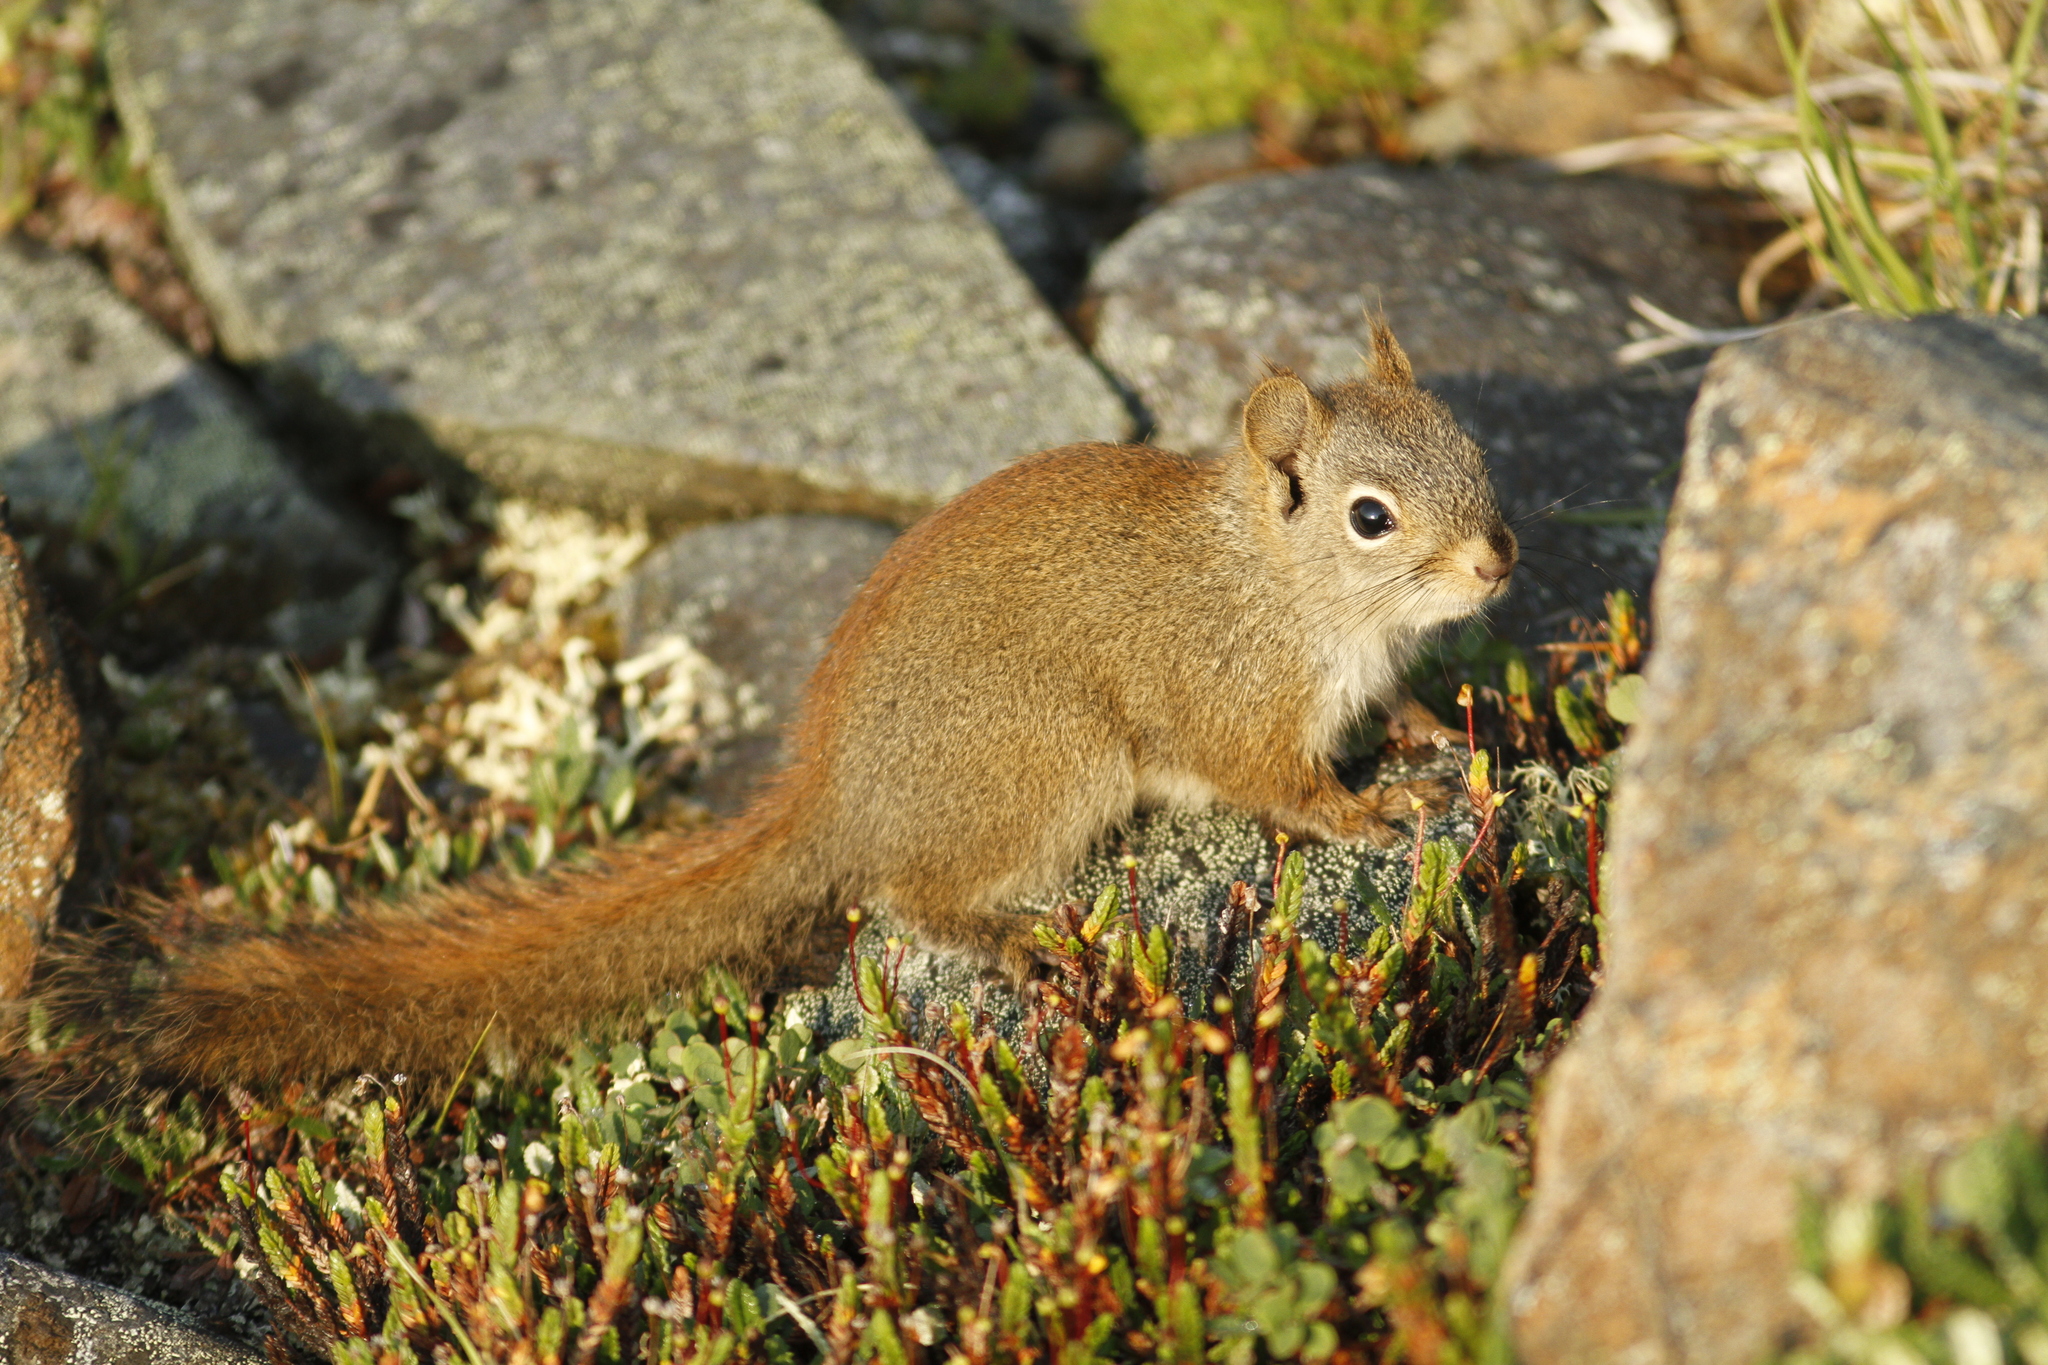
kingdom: Animalia
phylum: Chordata
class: Mammalia
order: Rodentia
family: Sciuridae
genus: Tamiasciurus
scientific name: Tamiasciurus hudsonicus
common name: Red squirrel
